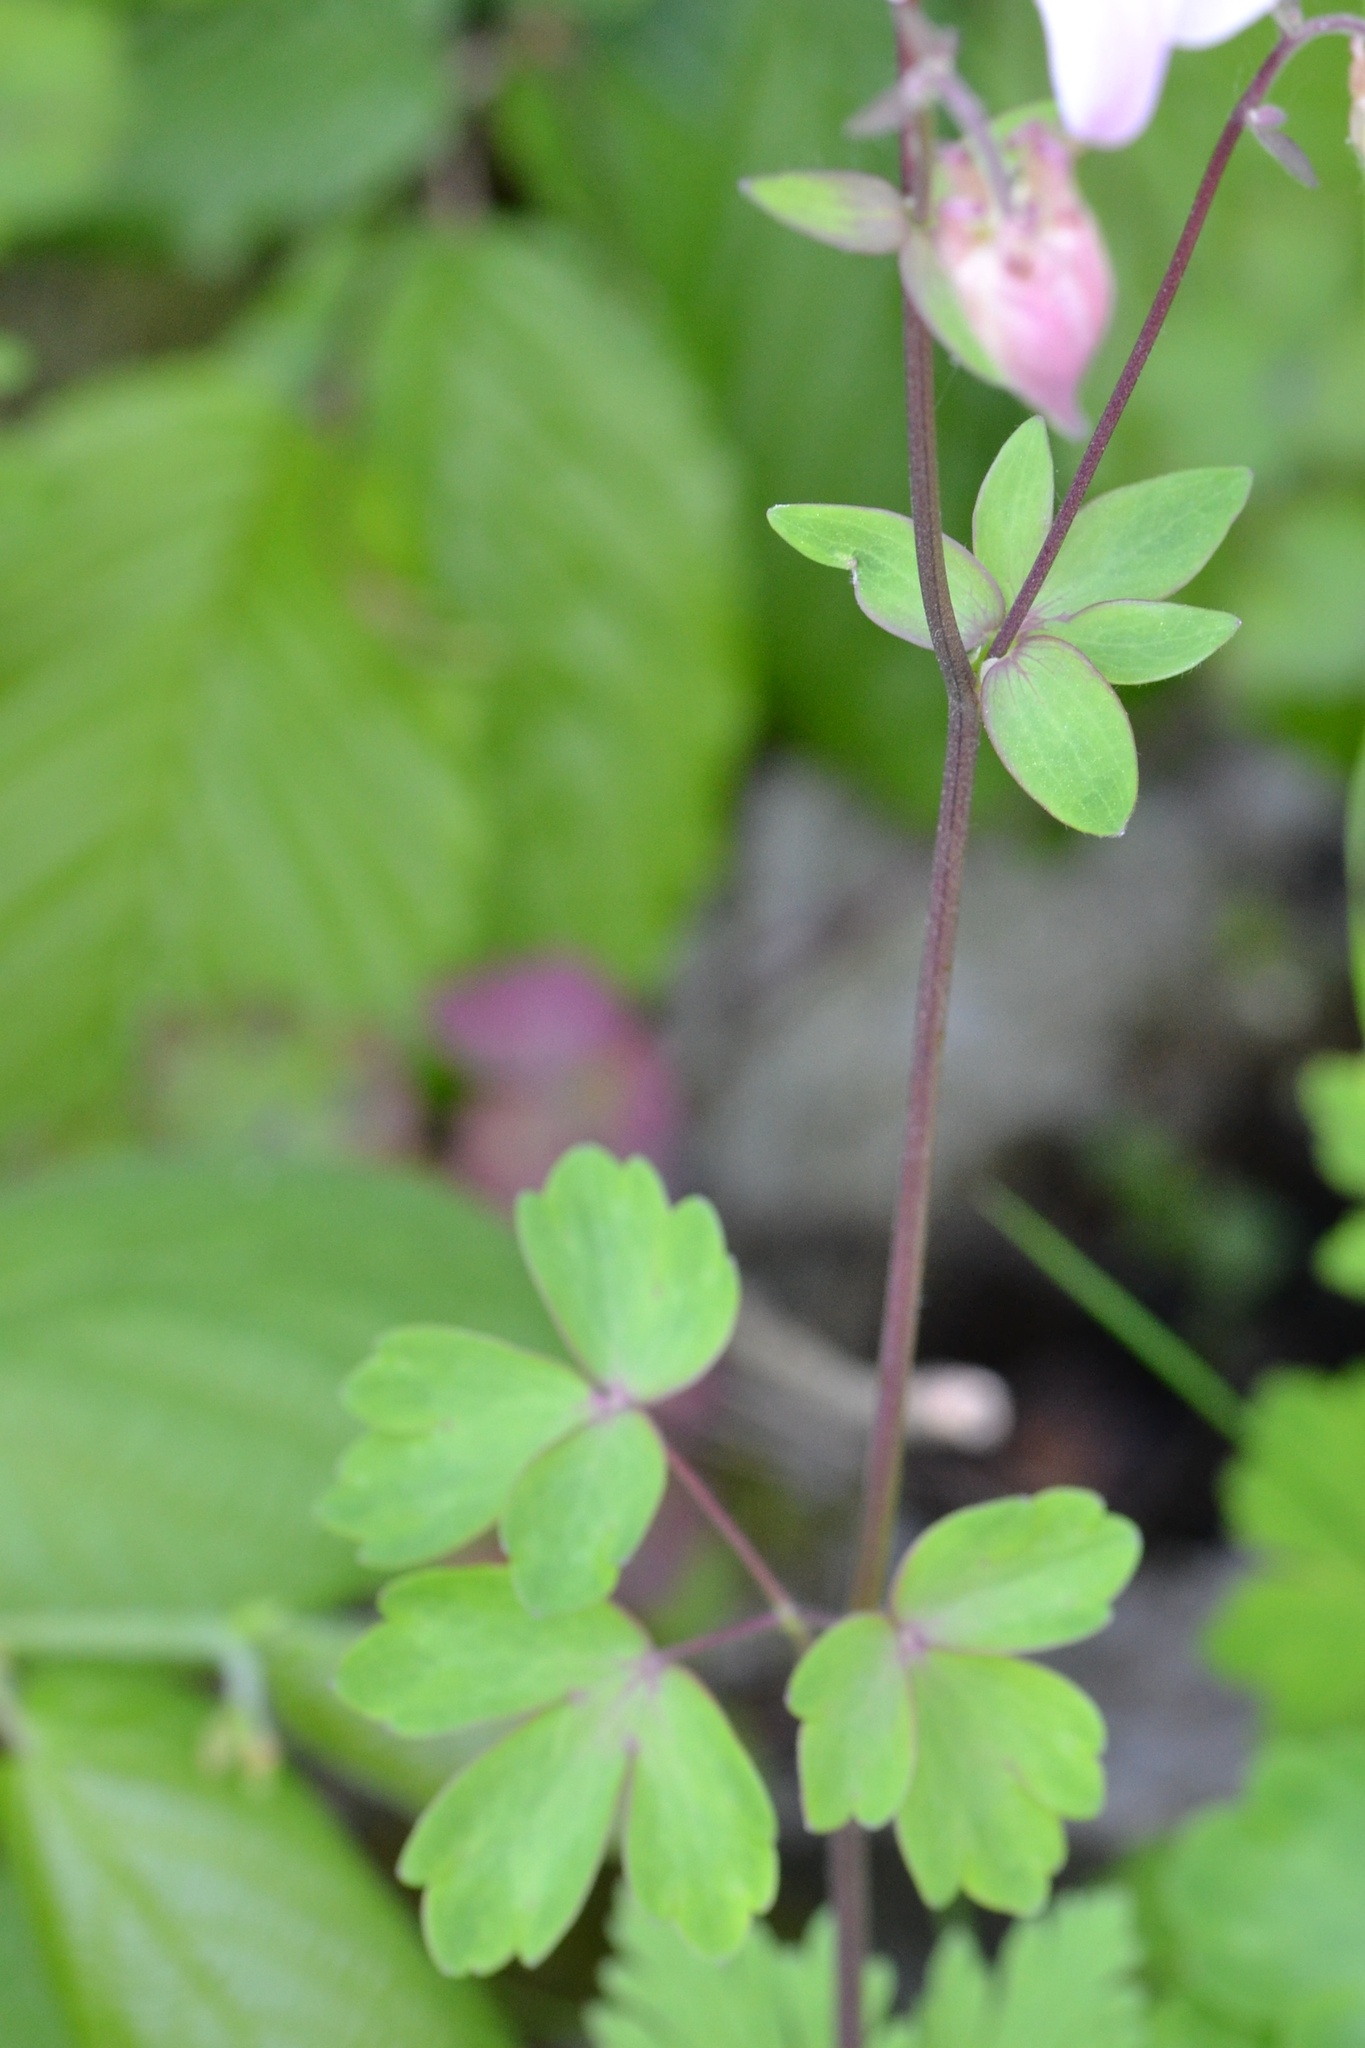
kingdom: Plantae
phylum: Tracheophyta
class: Magnoliopsida
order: Ranunculales
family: Ranunculaceae
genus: Aquilegia
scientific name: Aquilegia vulgaris
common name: Columbine
